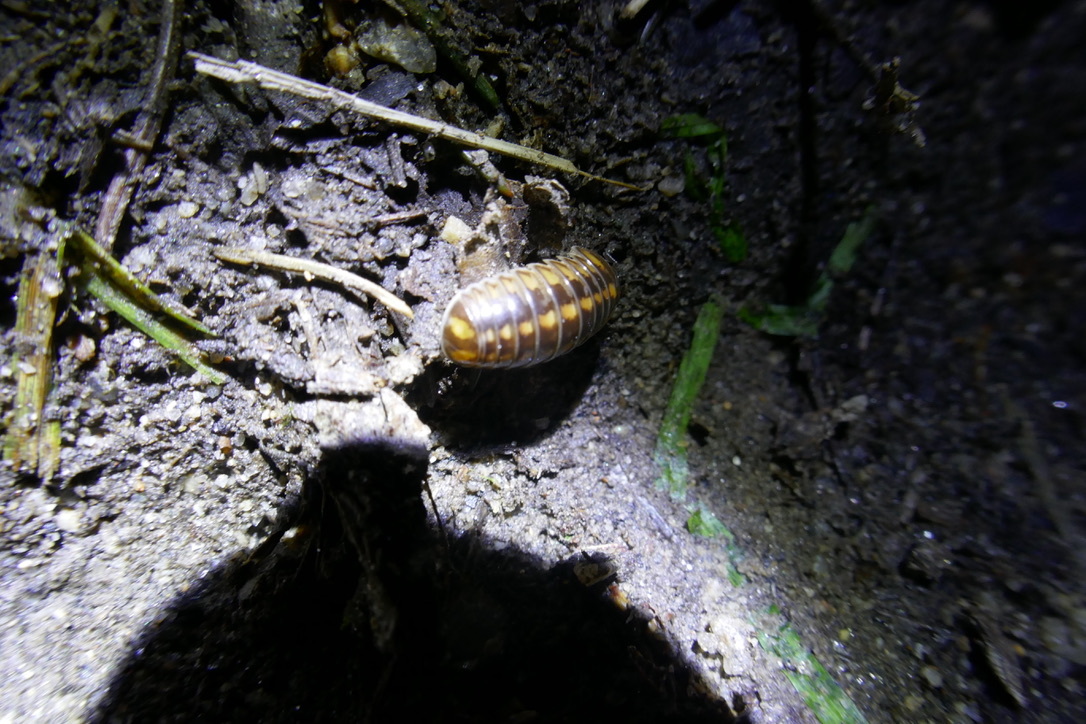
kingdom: Animalia
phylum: Arthropoda
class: Diplopoda
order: Glomerida
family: Glomeridae
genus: Glomeris
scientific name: Glomeris connexa
